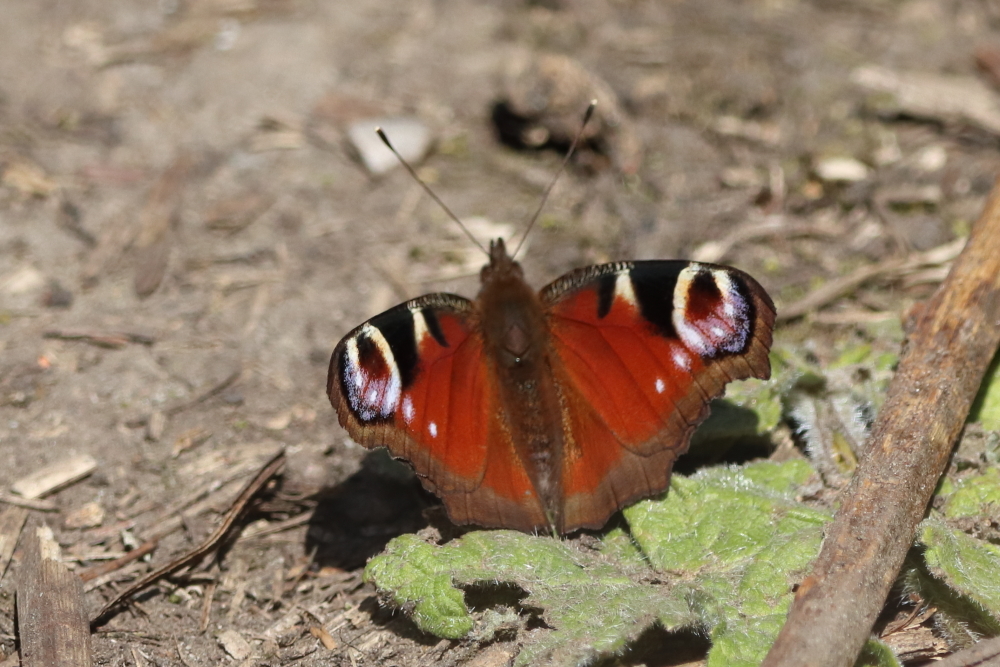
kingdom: Animalia
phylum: Arthropoda
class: Insecta
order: Lepidoptera
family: Nymphalidae
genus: Aglais
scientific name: Aglais io
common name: Peacock
